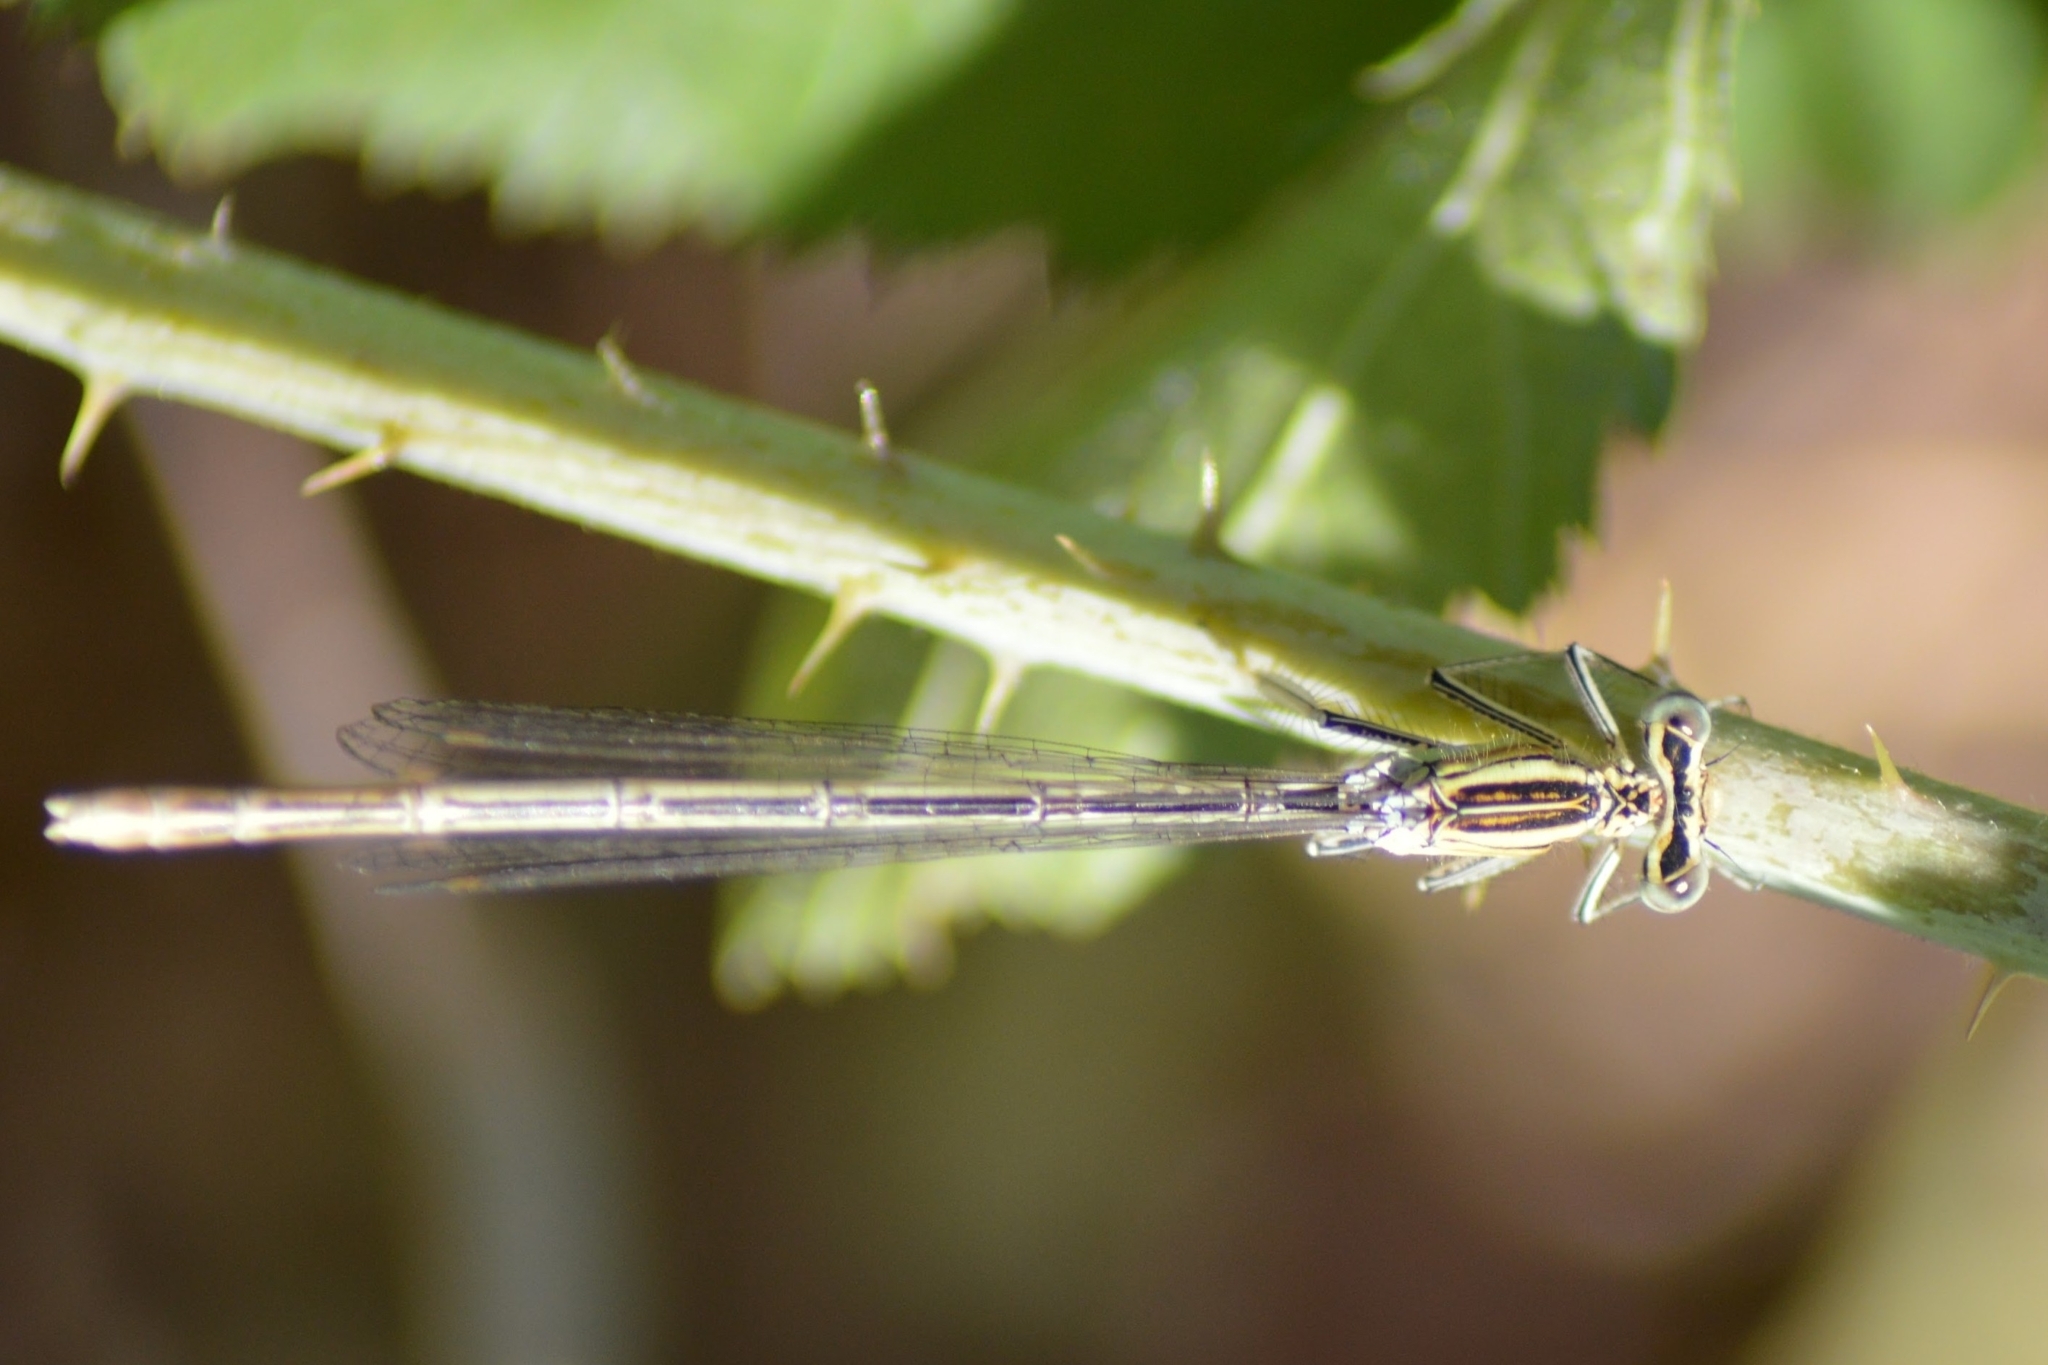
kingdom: Animalia
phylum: Arthropoda
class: Insecta
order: Odonata
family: Platycnemididae
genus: Platycnemis
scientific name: Platycnemis pennipes
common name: White-legged damselfly
